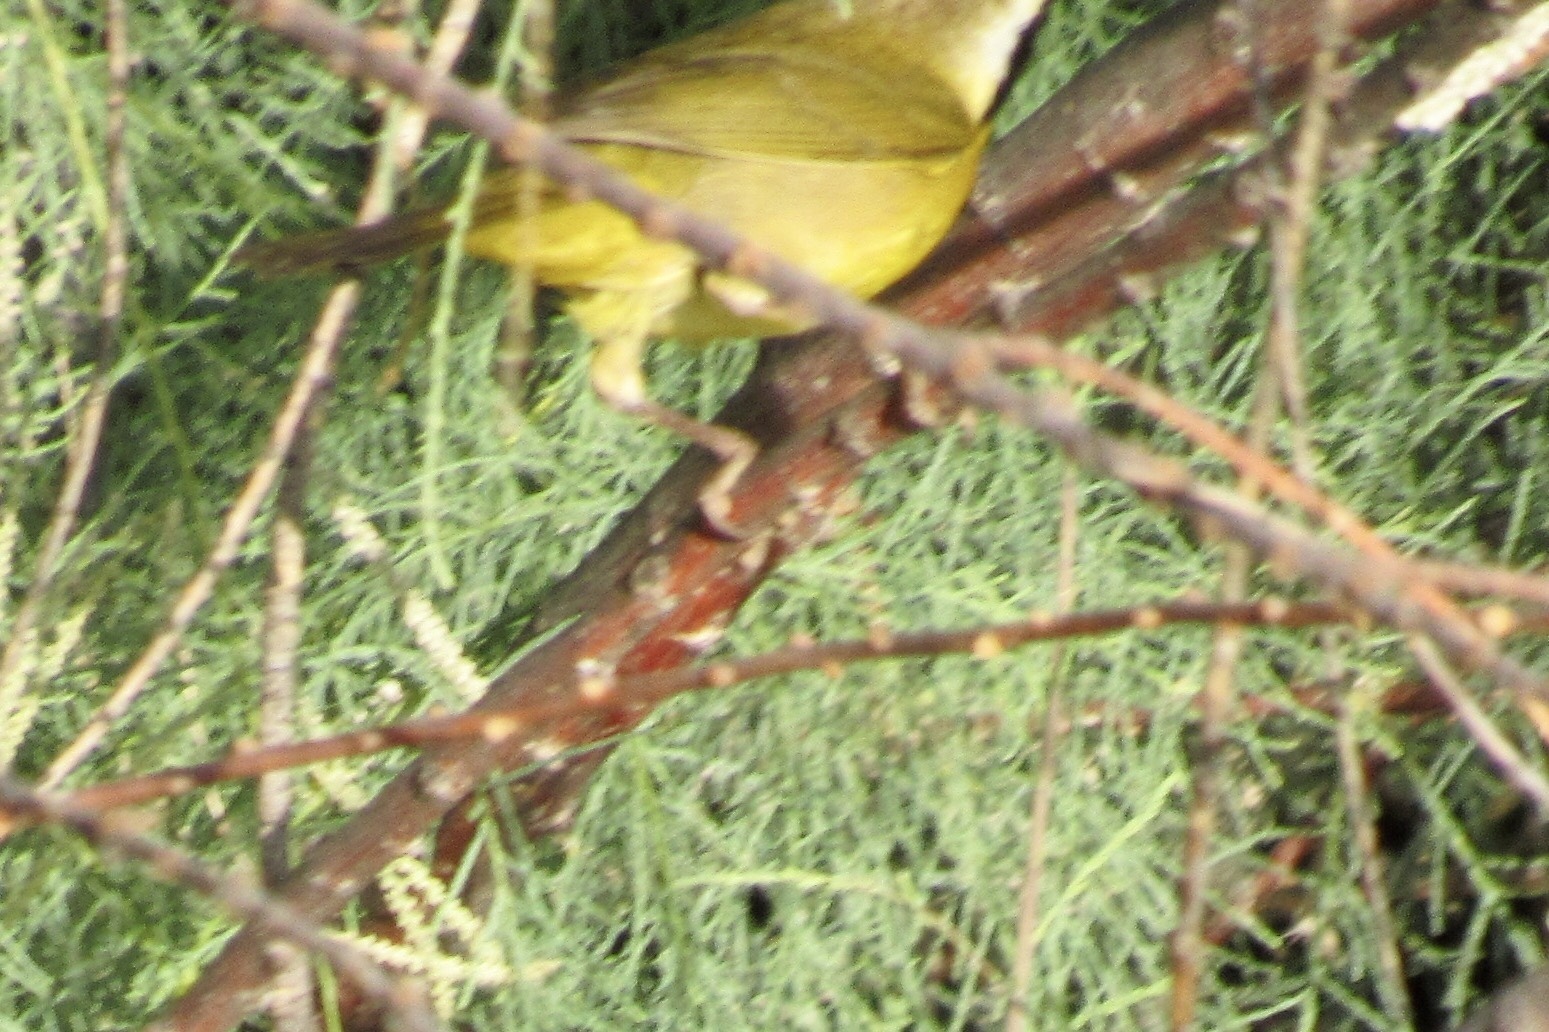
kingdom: Animalia
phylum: Chordata
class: Aves
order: Passeriformes
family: Parulidae
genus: Geothlypis
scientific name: Geothlypis trichas
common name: Common yellowthroat
